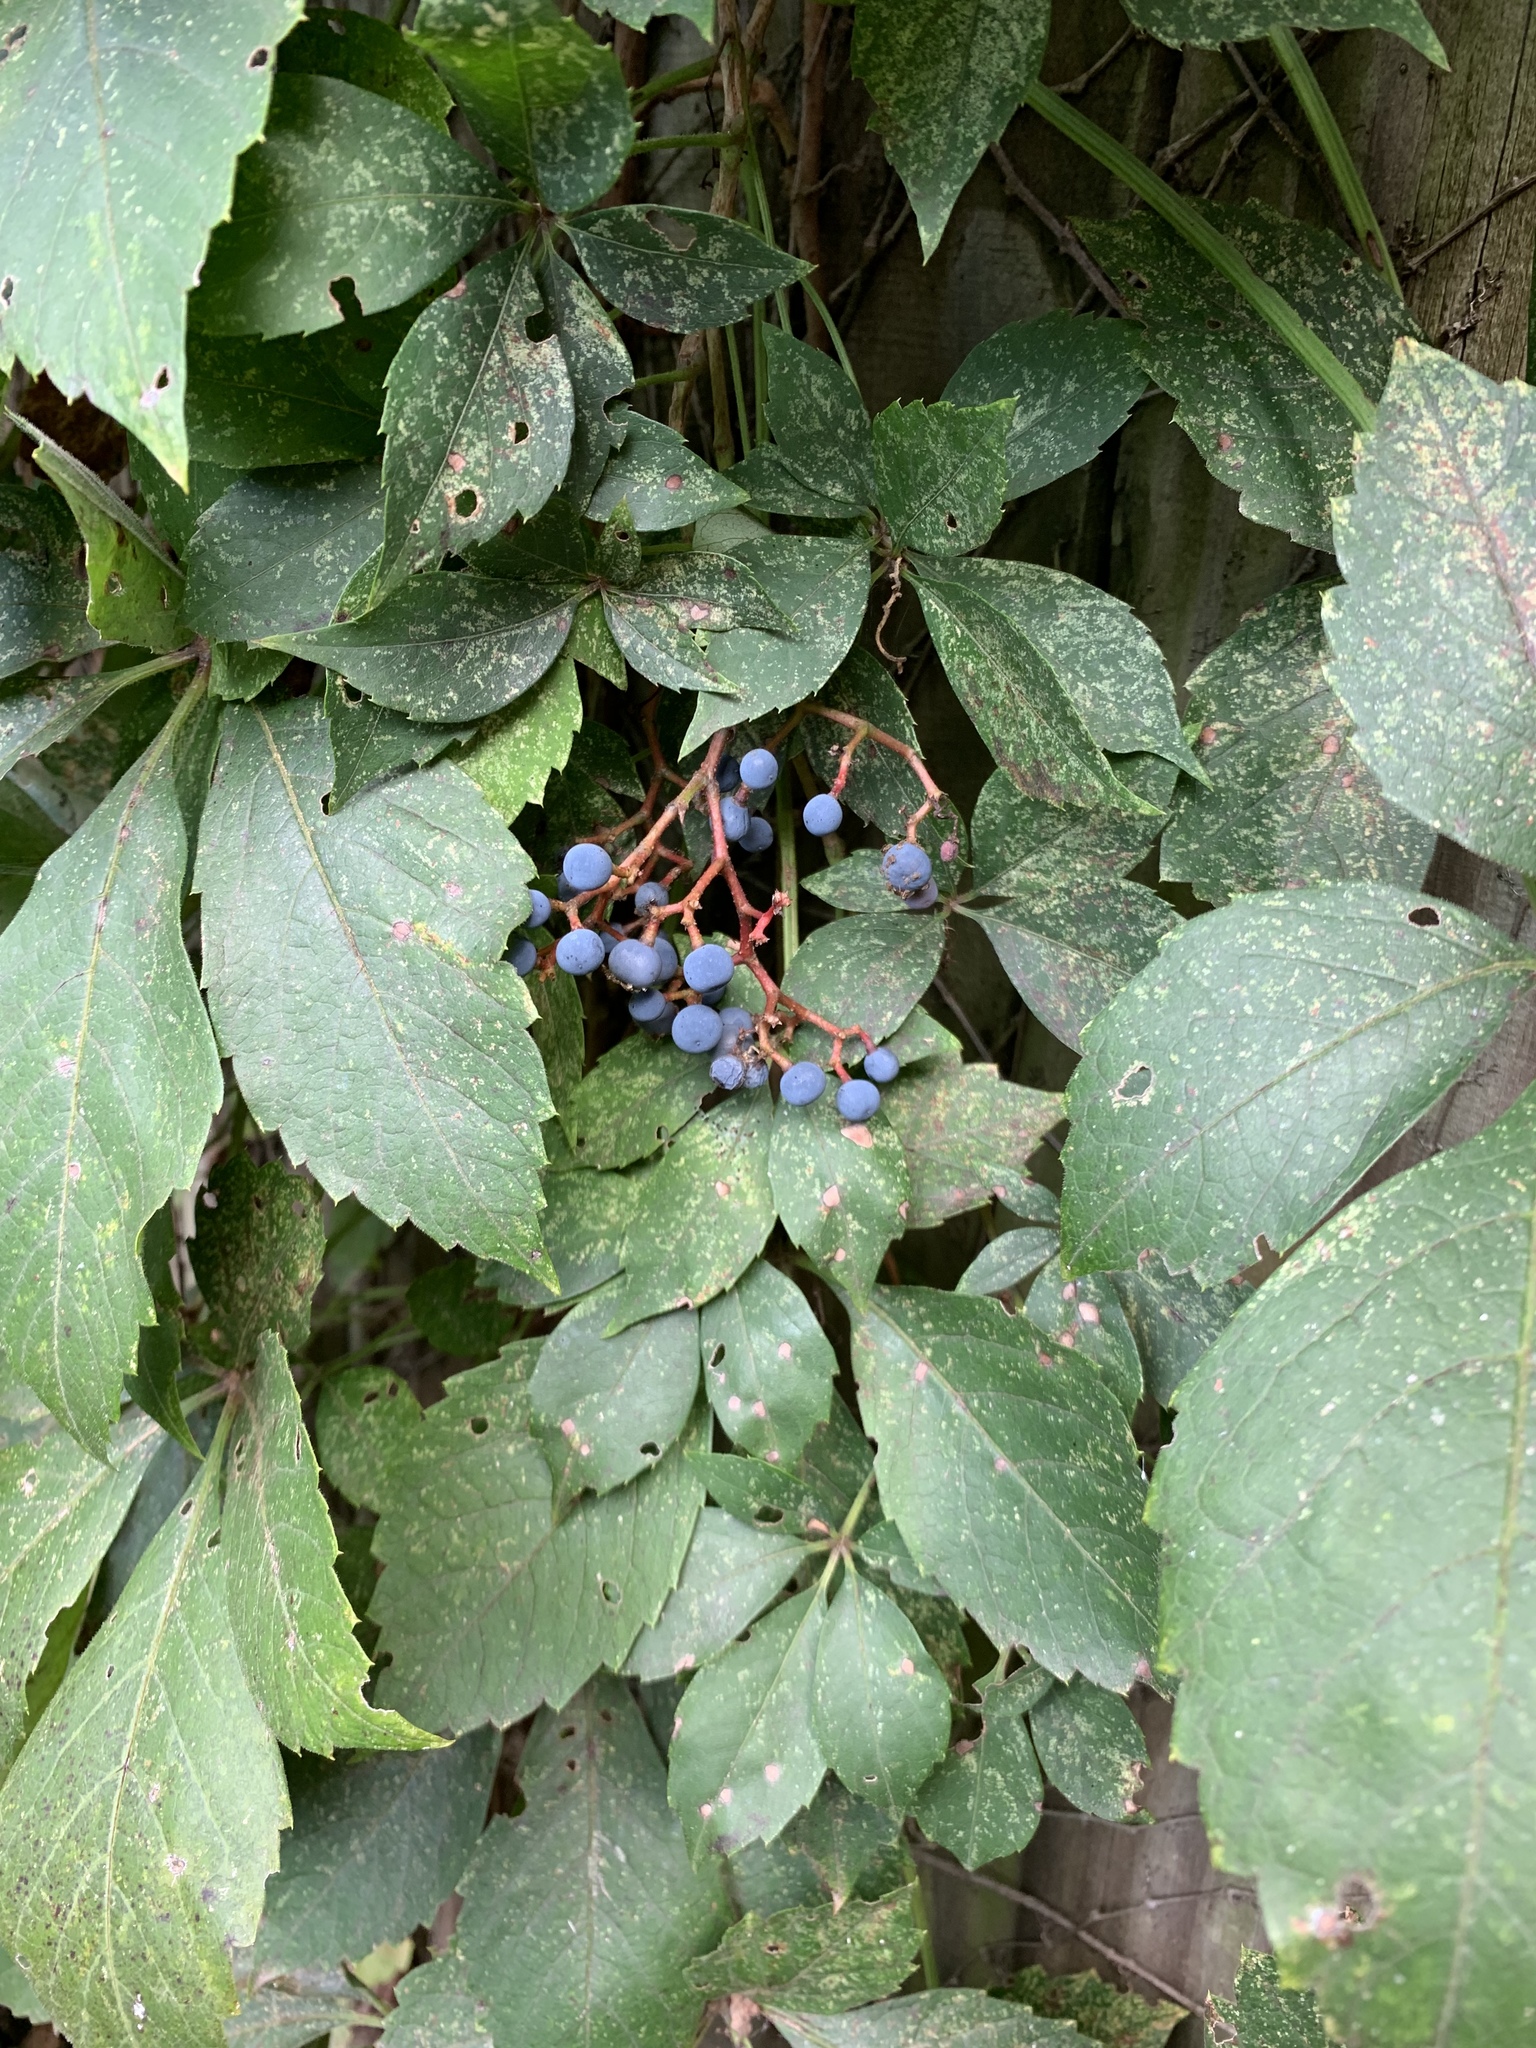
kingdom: Plantae
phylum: Tracheophyta
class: Magnoliopsida
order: Vitales
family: Vitaceae
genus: Parthenocissus
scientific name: Parthenocissus quinquefolia
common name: Virginia-creeper
